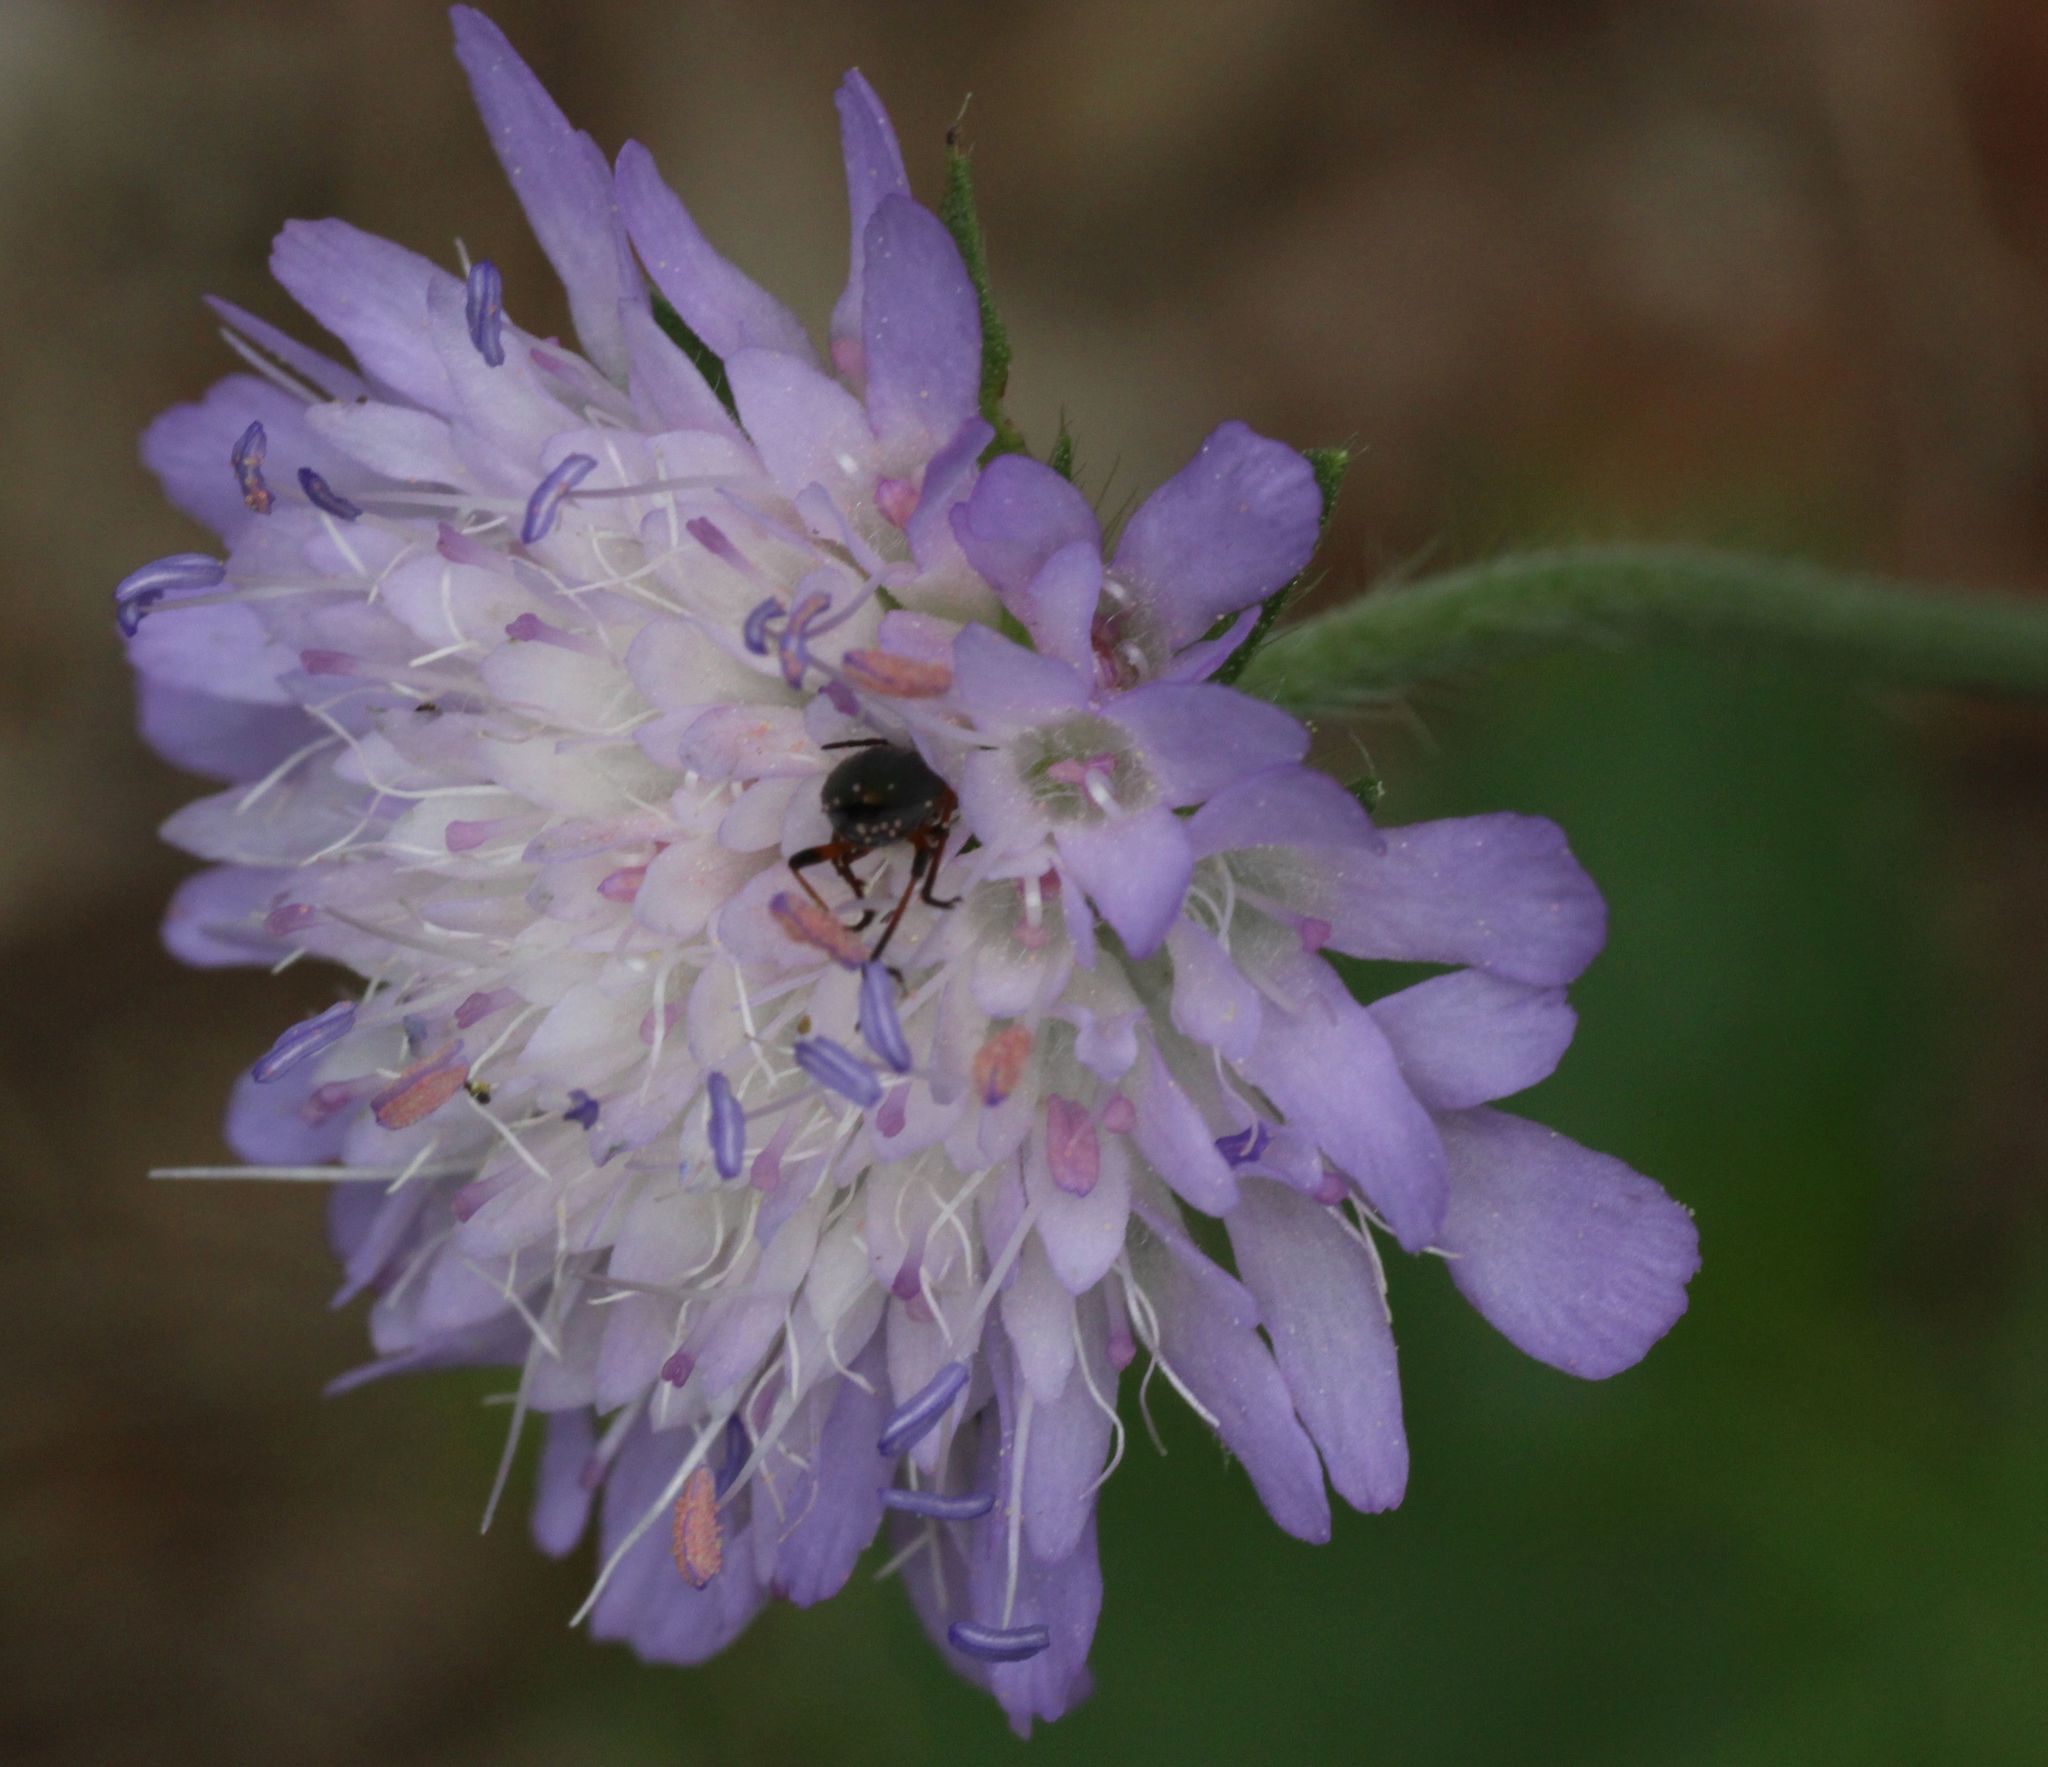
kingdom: Plantae
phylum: Tracheophyta
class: Magnoliopsida
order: Dipsacales
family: Caprifoliaceae
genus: Knautia
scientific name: Knautia arvensis
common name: Field scabiosa
